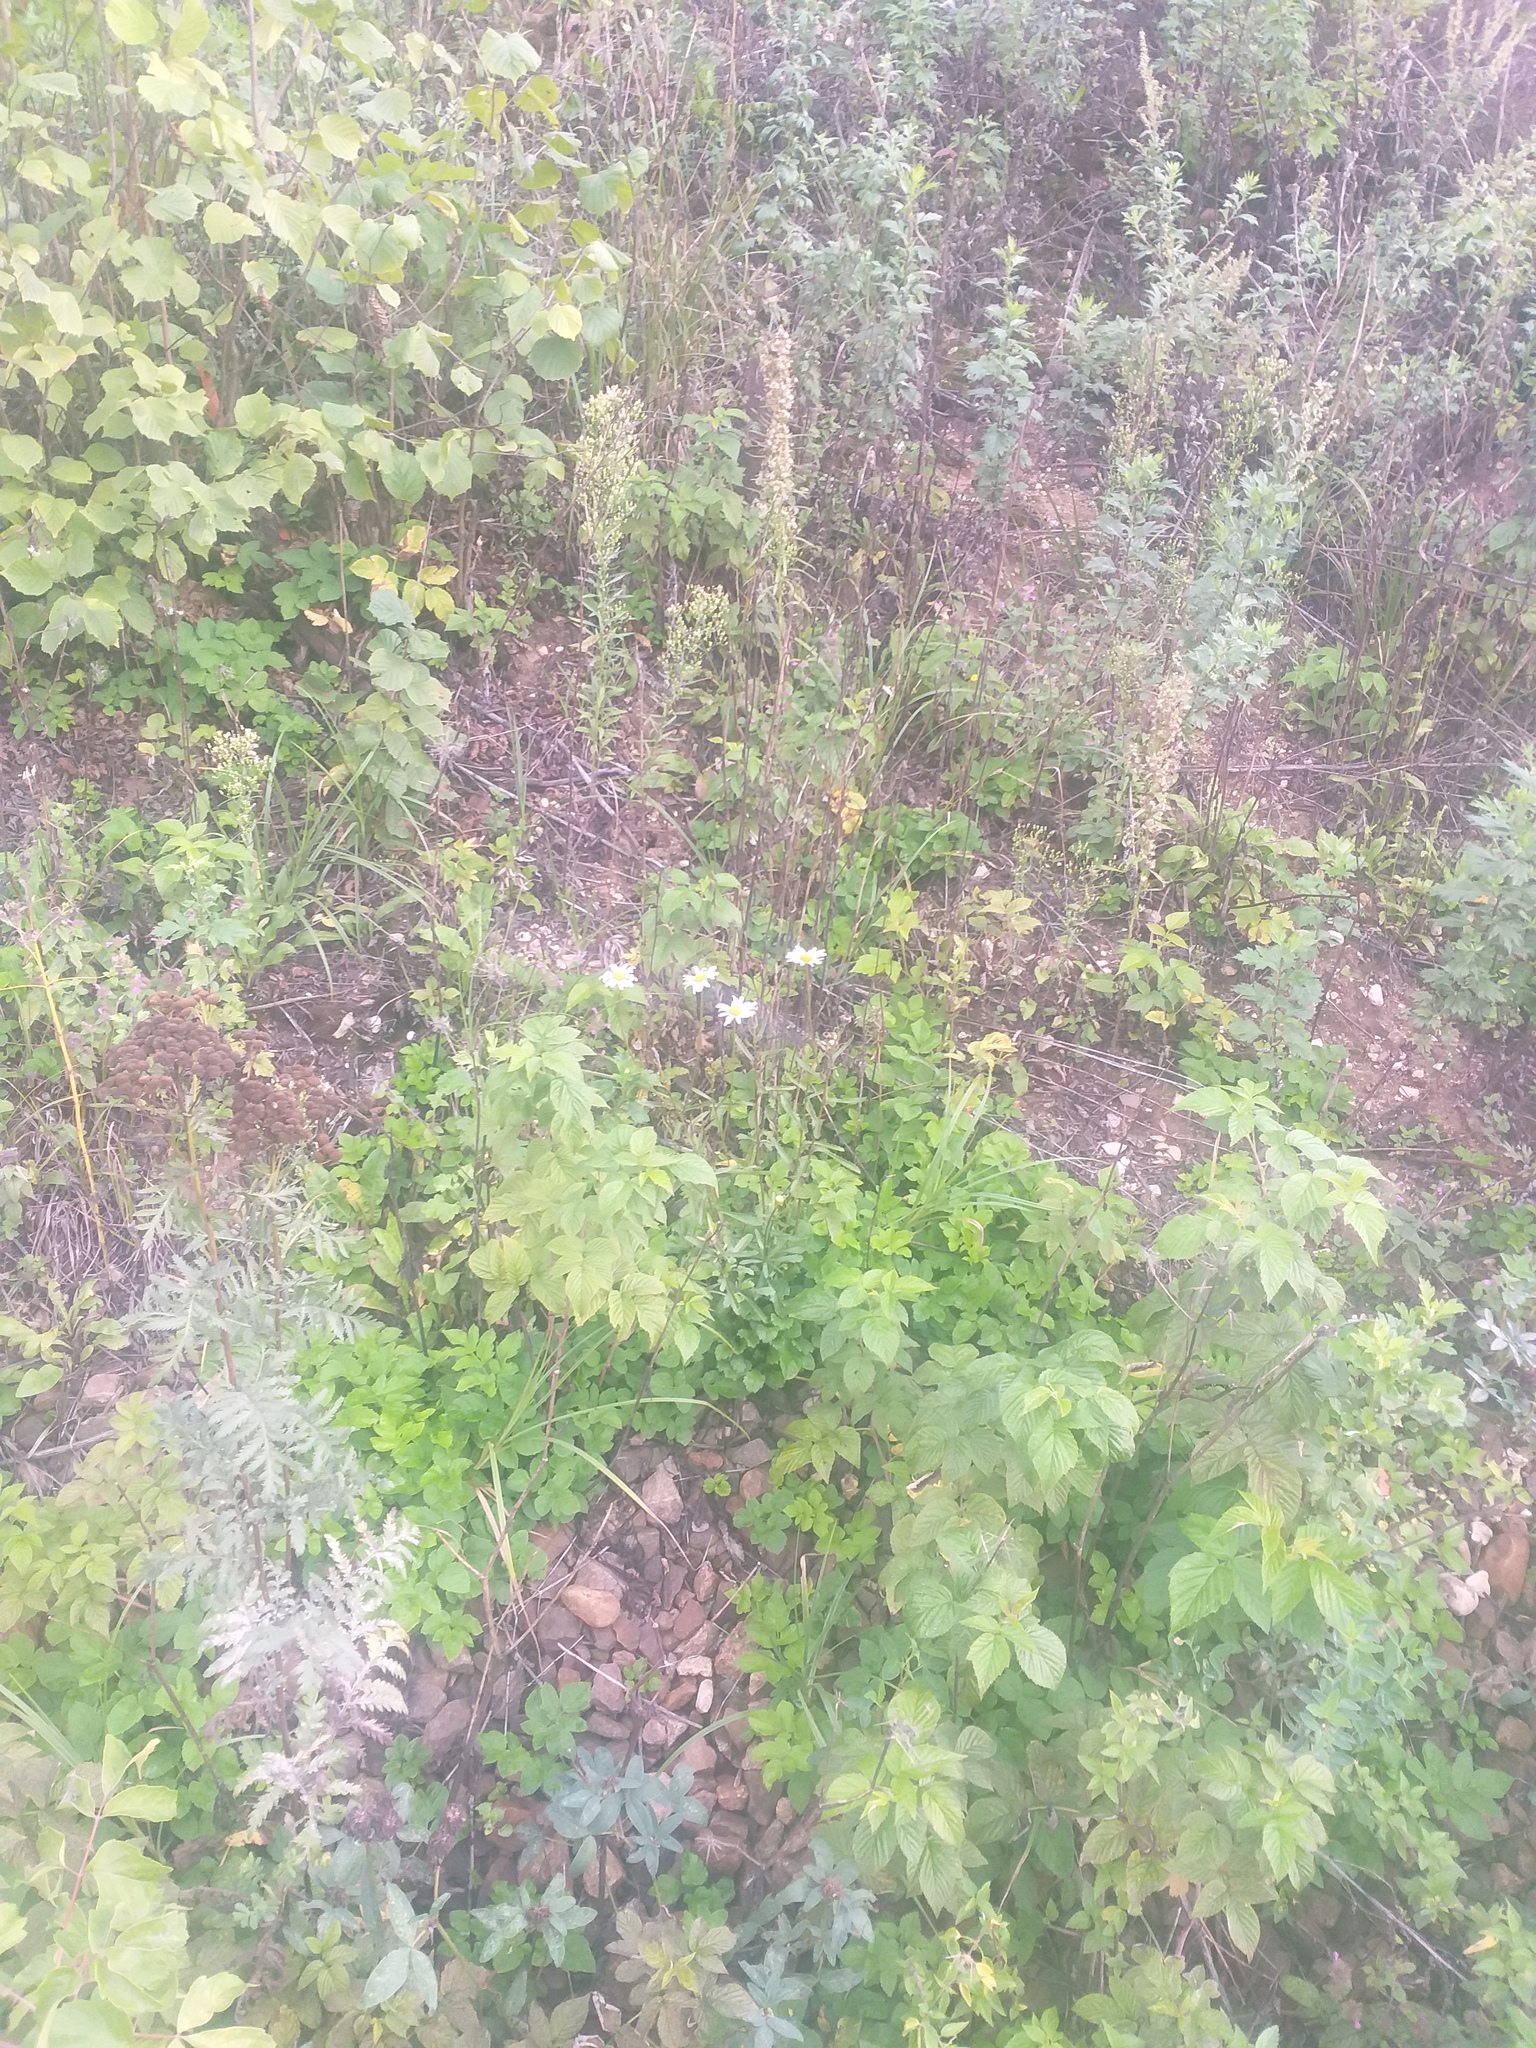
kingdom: Plantae
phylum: Tracheophyta
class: Magnoliopsida
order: Asterales
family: Asteraceae
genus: Leucanthemum
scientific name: Leucanthemum vulgare
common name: Oxeye daisy
